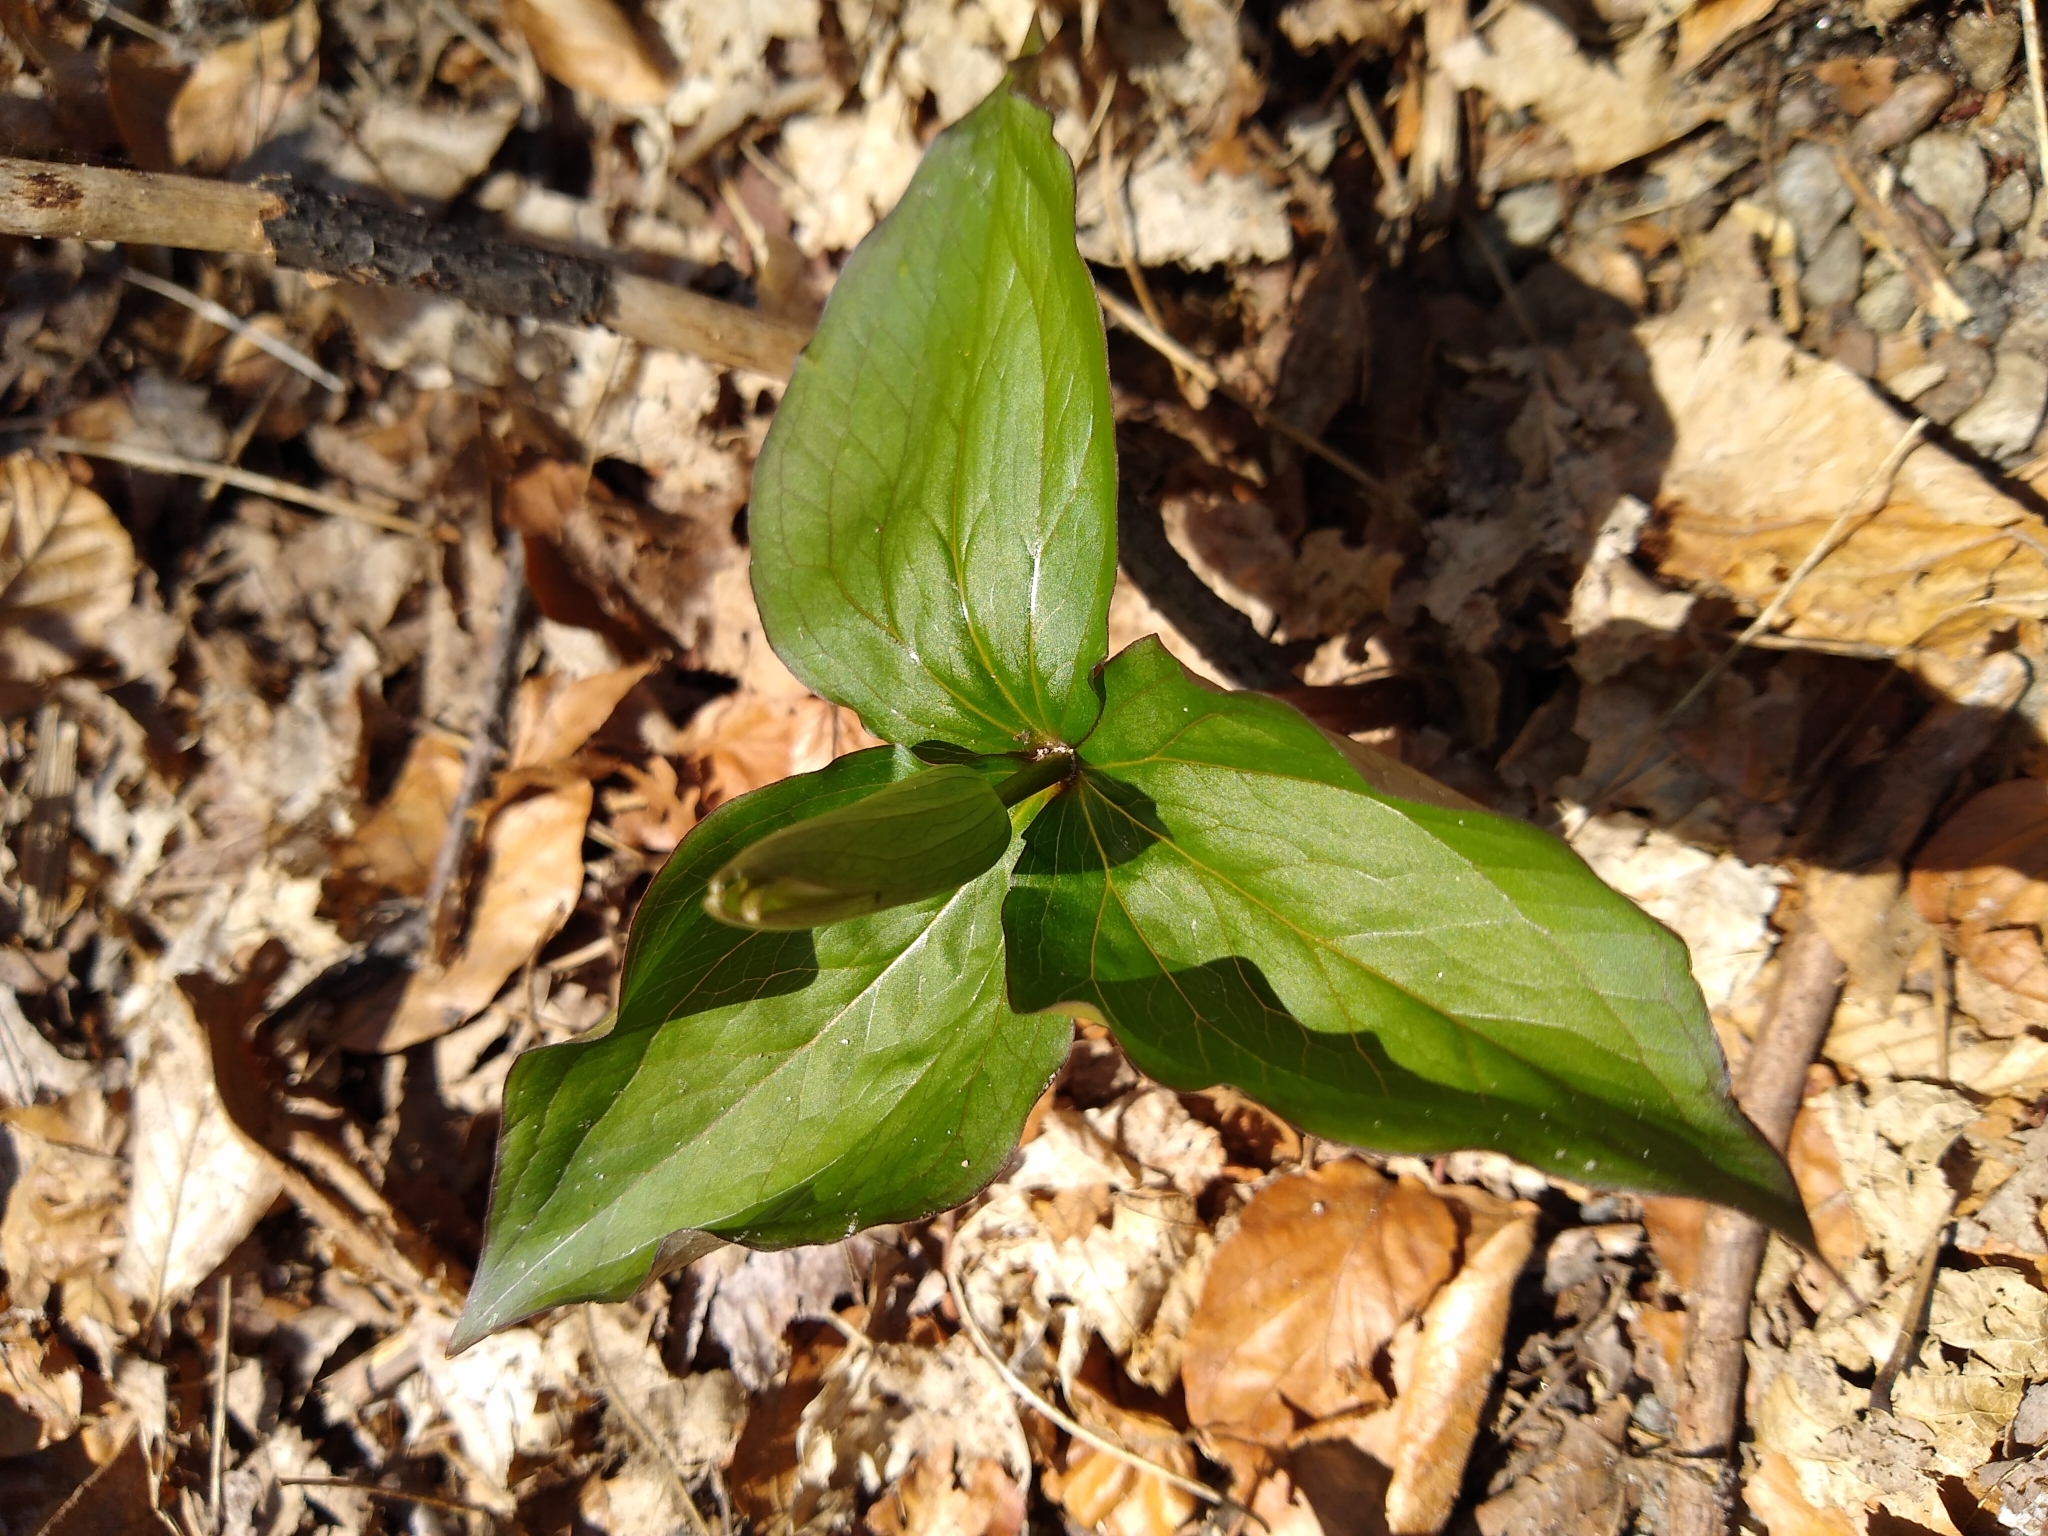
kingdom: Plantae
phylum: Tracheophyta
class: Liliopsida
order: Liliales
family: Melanthiaceae
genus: Trillium
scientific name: Trillium grandiflorum
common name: Great white trillium
